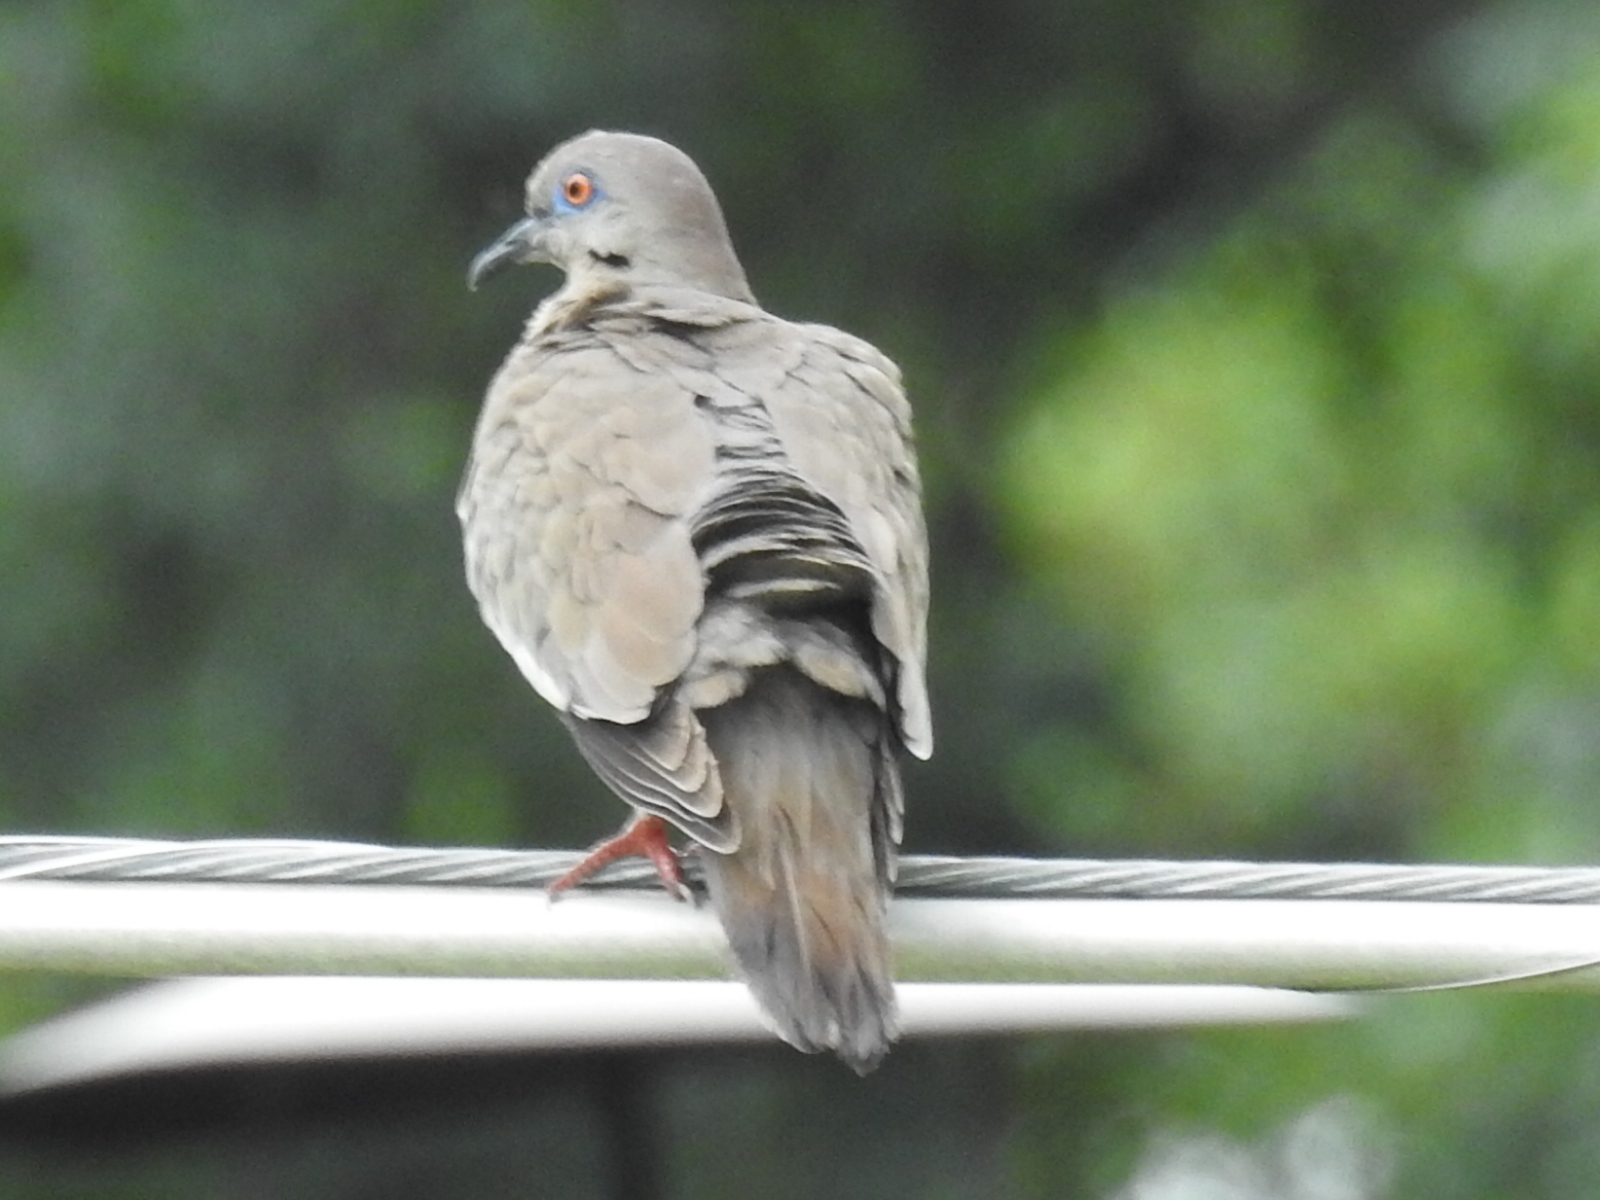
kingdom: Animalia
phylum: Chordata
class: Aves
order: Columbiformes
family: Columbidae
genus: Zenaida
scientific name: Zenaida asiatica
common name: White-winged dove
